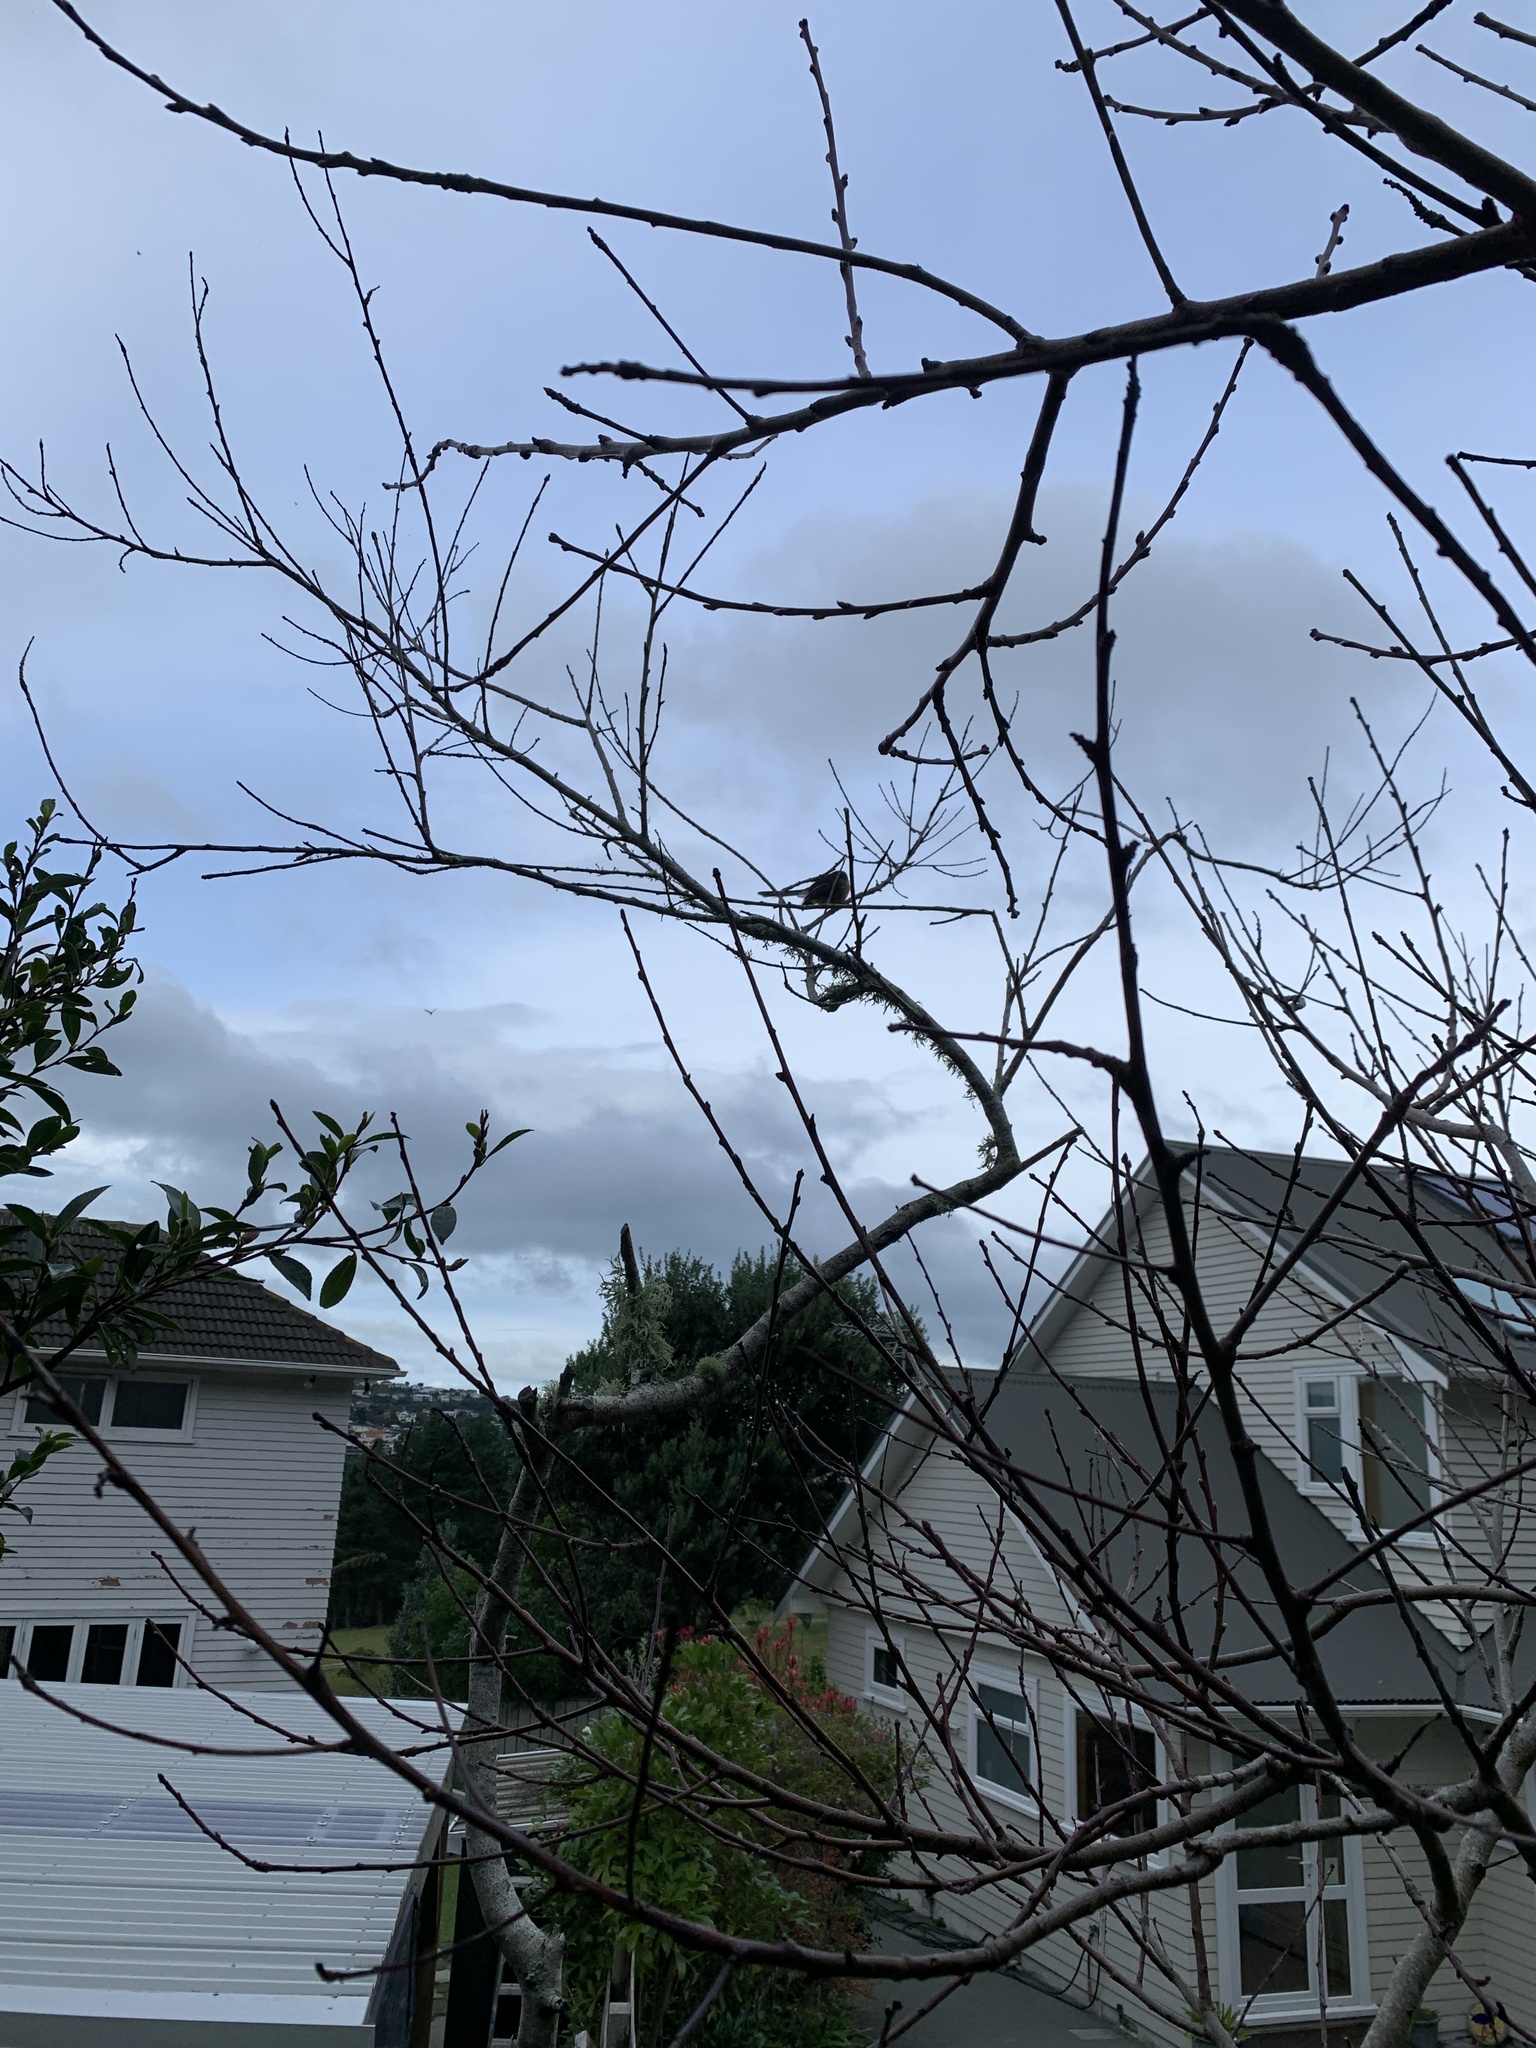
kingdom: Animalia
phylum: Chordata
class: Aves
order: Passeriformes
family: Rhipiduridae
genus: Rhipidura
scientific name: Rhipidura fuliginosa
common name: New zealand fantail
